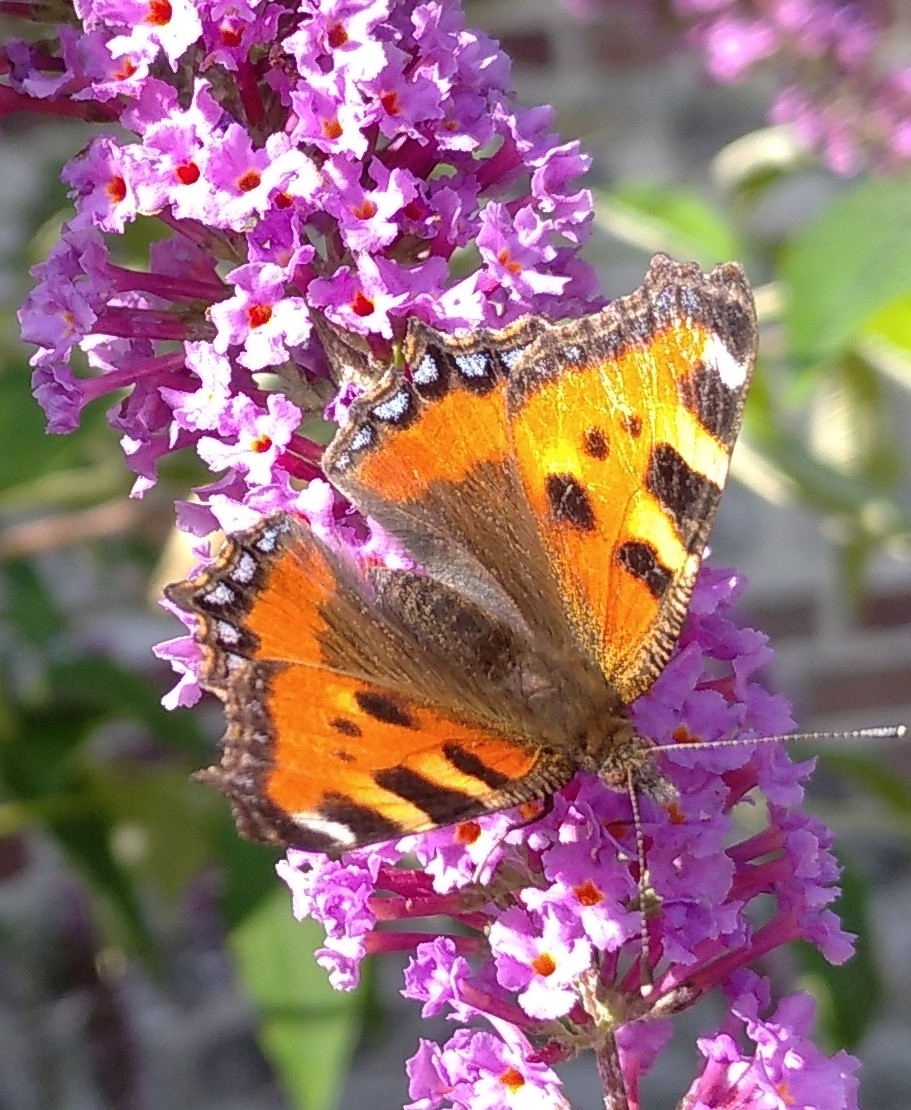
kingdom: Animalia
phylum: Arthropoda
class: Insecta
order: Lepidoptera
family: Nymphalidae
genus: Aglais
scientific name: Aglais urticae
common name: Small tortoiseshell
